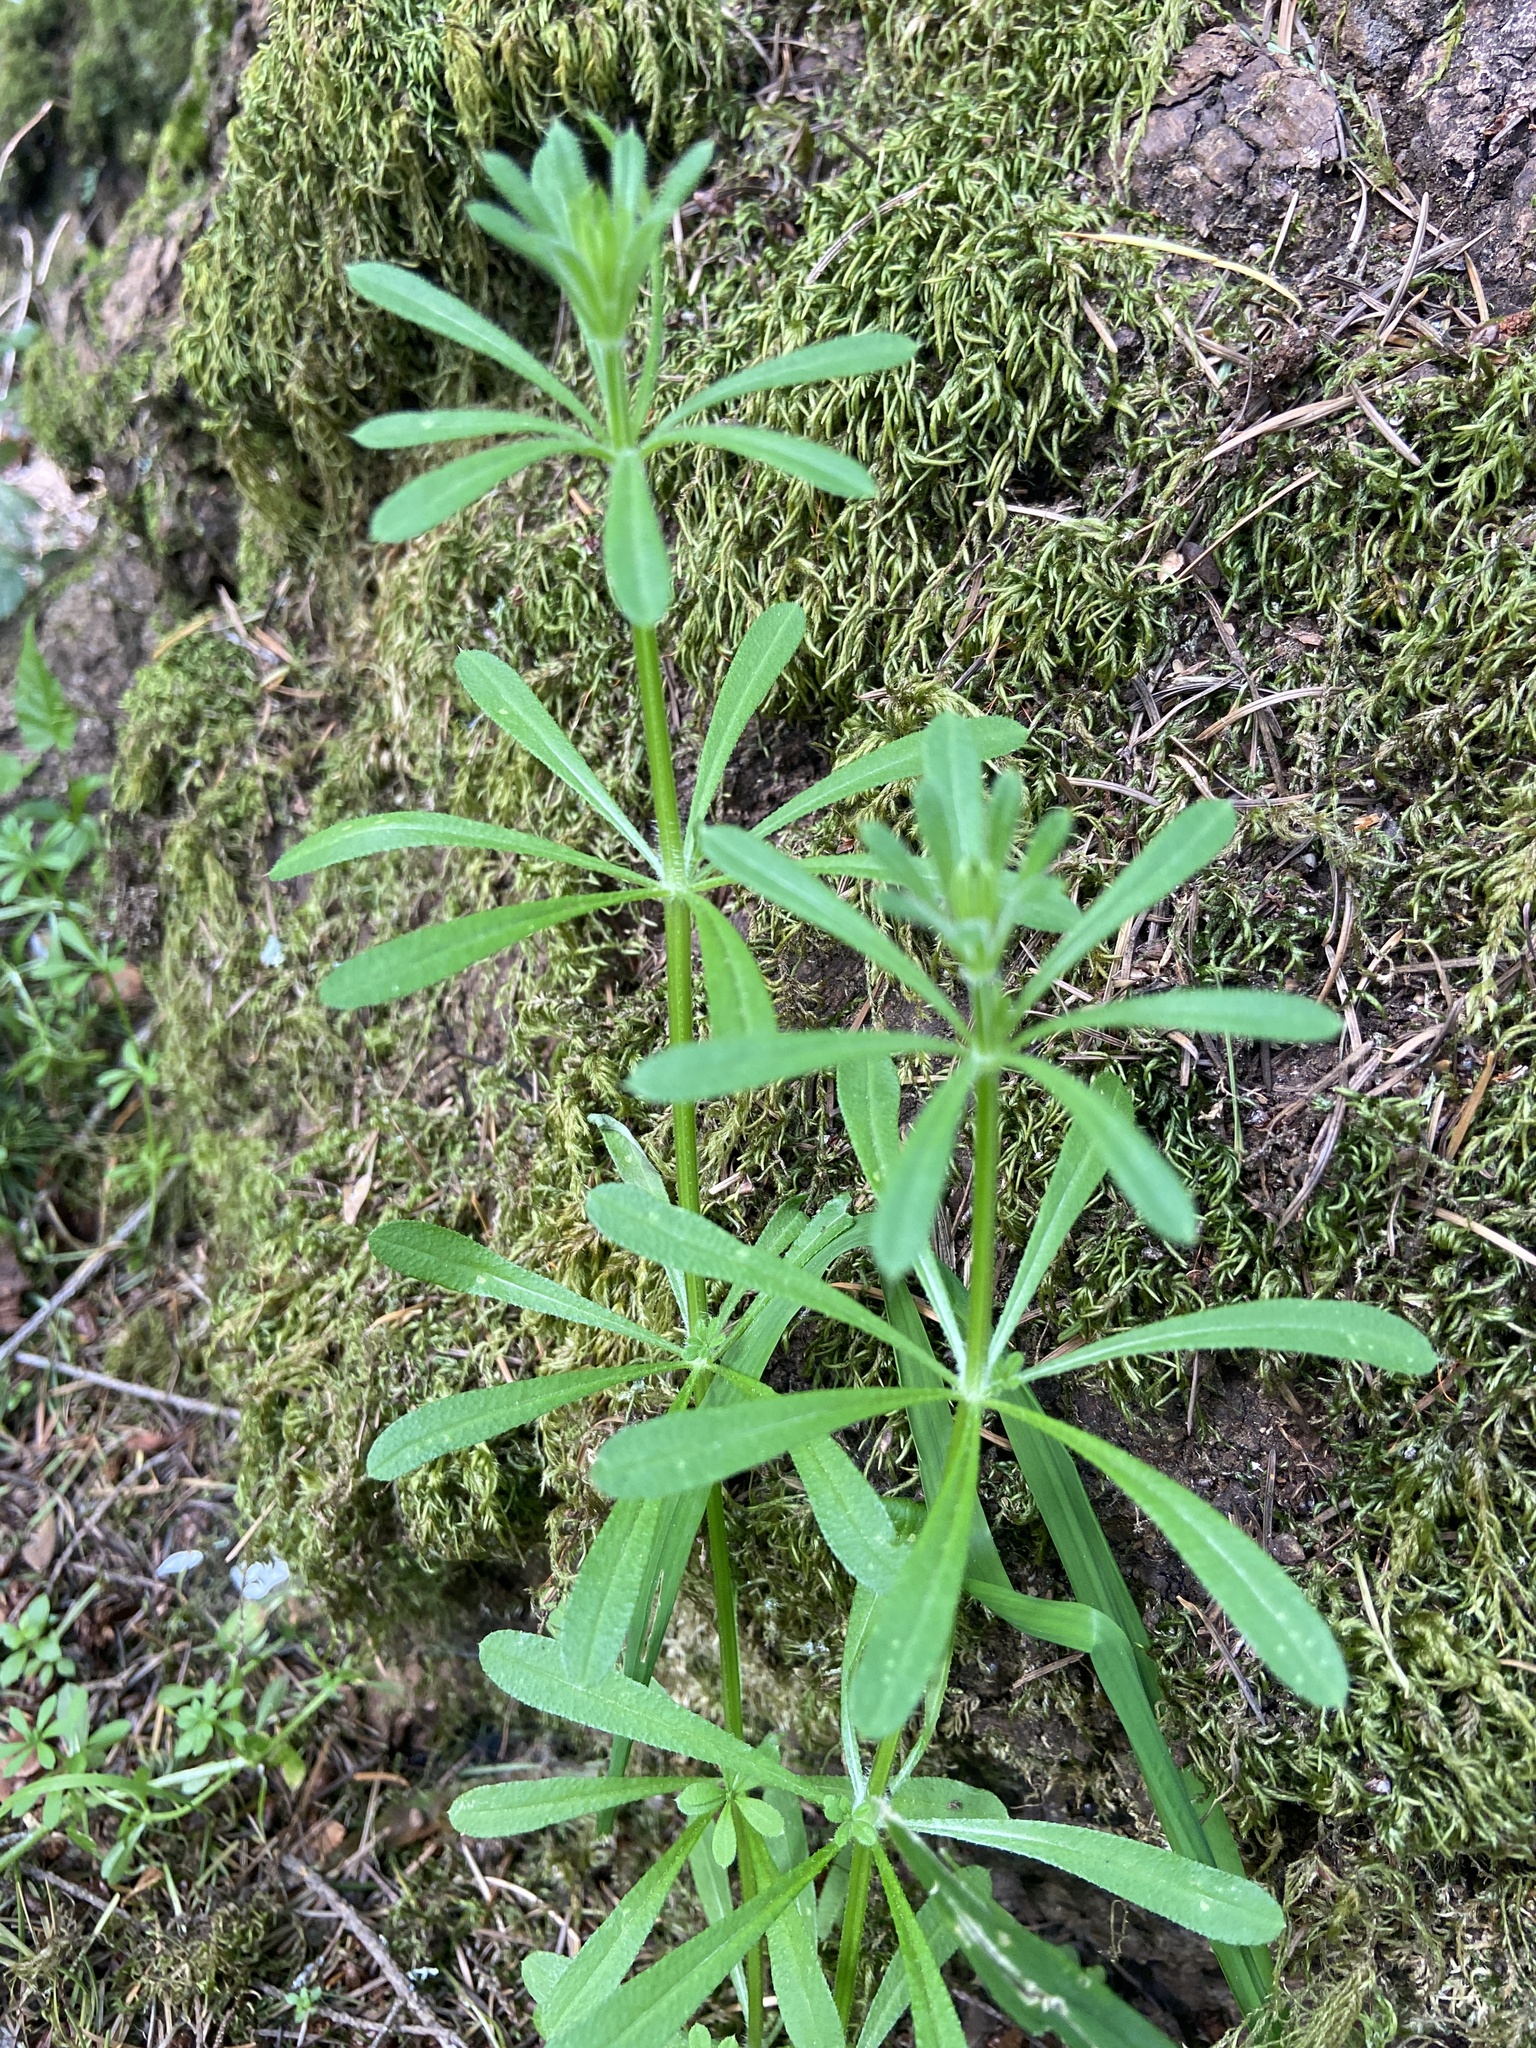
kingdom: Plantae
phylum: Tracheophyta
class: Magnoliopsida
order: Gentianales
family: Rubiaceae
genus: Galium
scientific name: Galium aparine
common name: Cleavers
